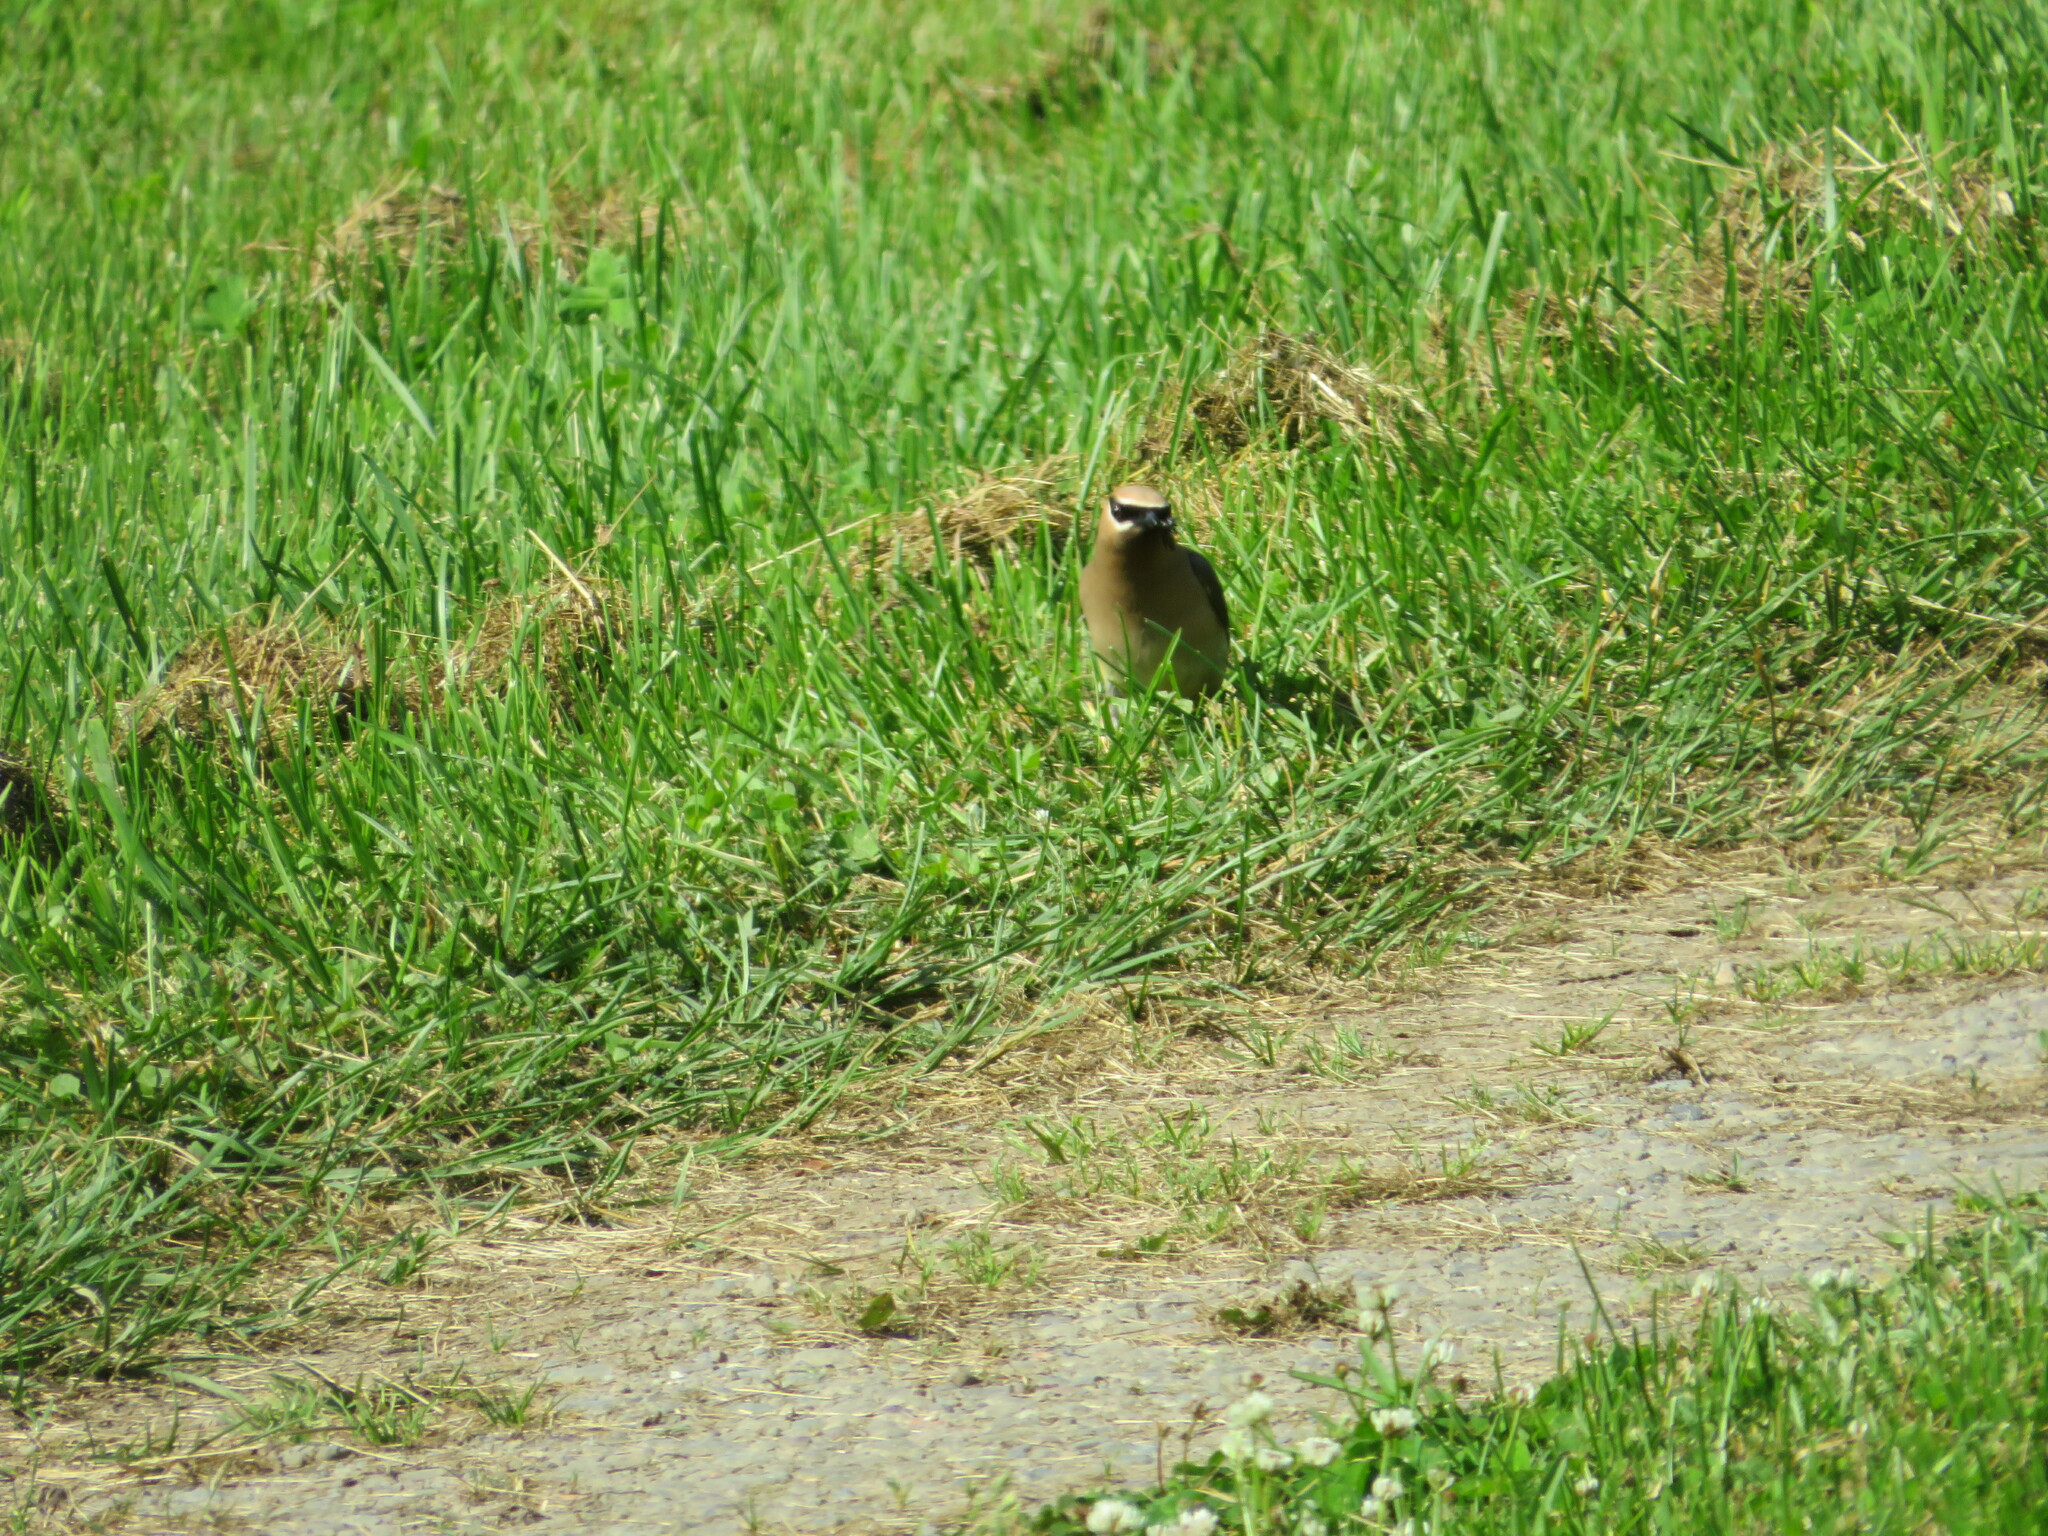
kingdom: Animalia
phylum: Chordata
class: Aves
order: Passeriformes
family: Bombycillidae
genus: Bombycilla
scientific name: Bombycilla cedrorum
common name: Cedar waxwing
